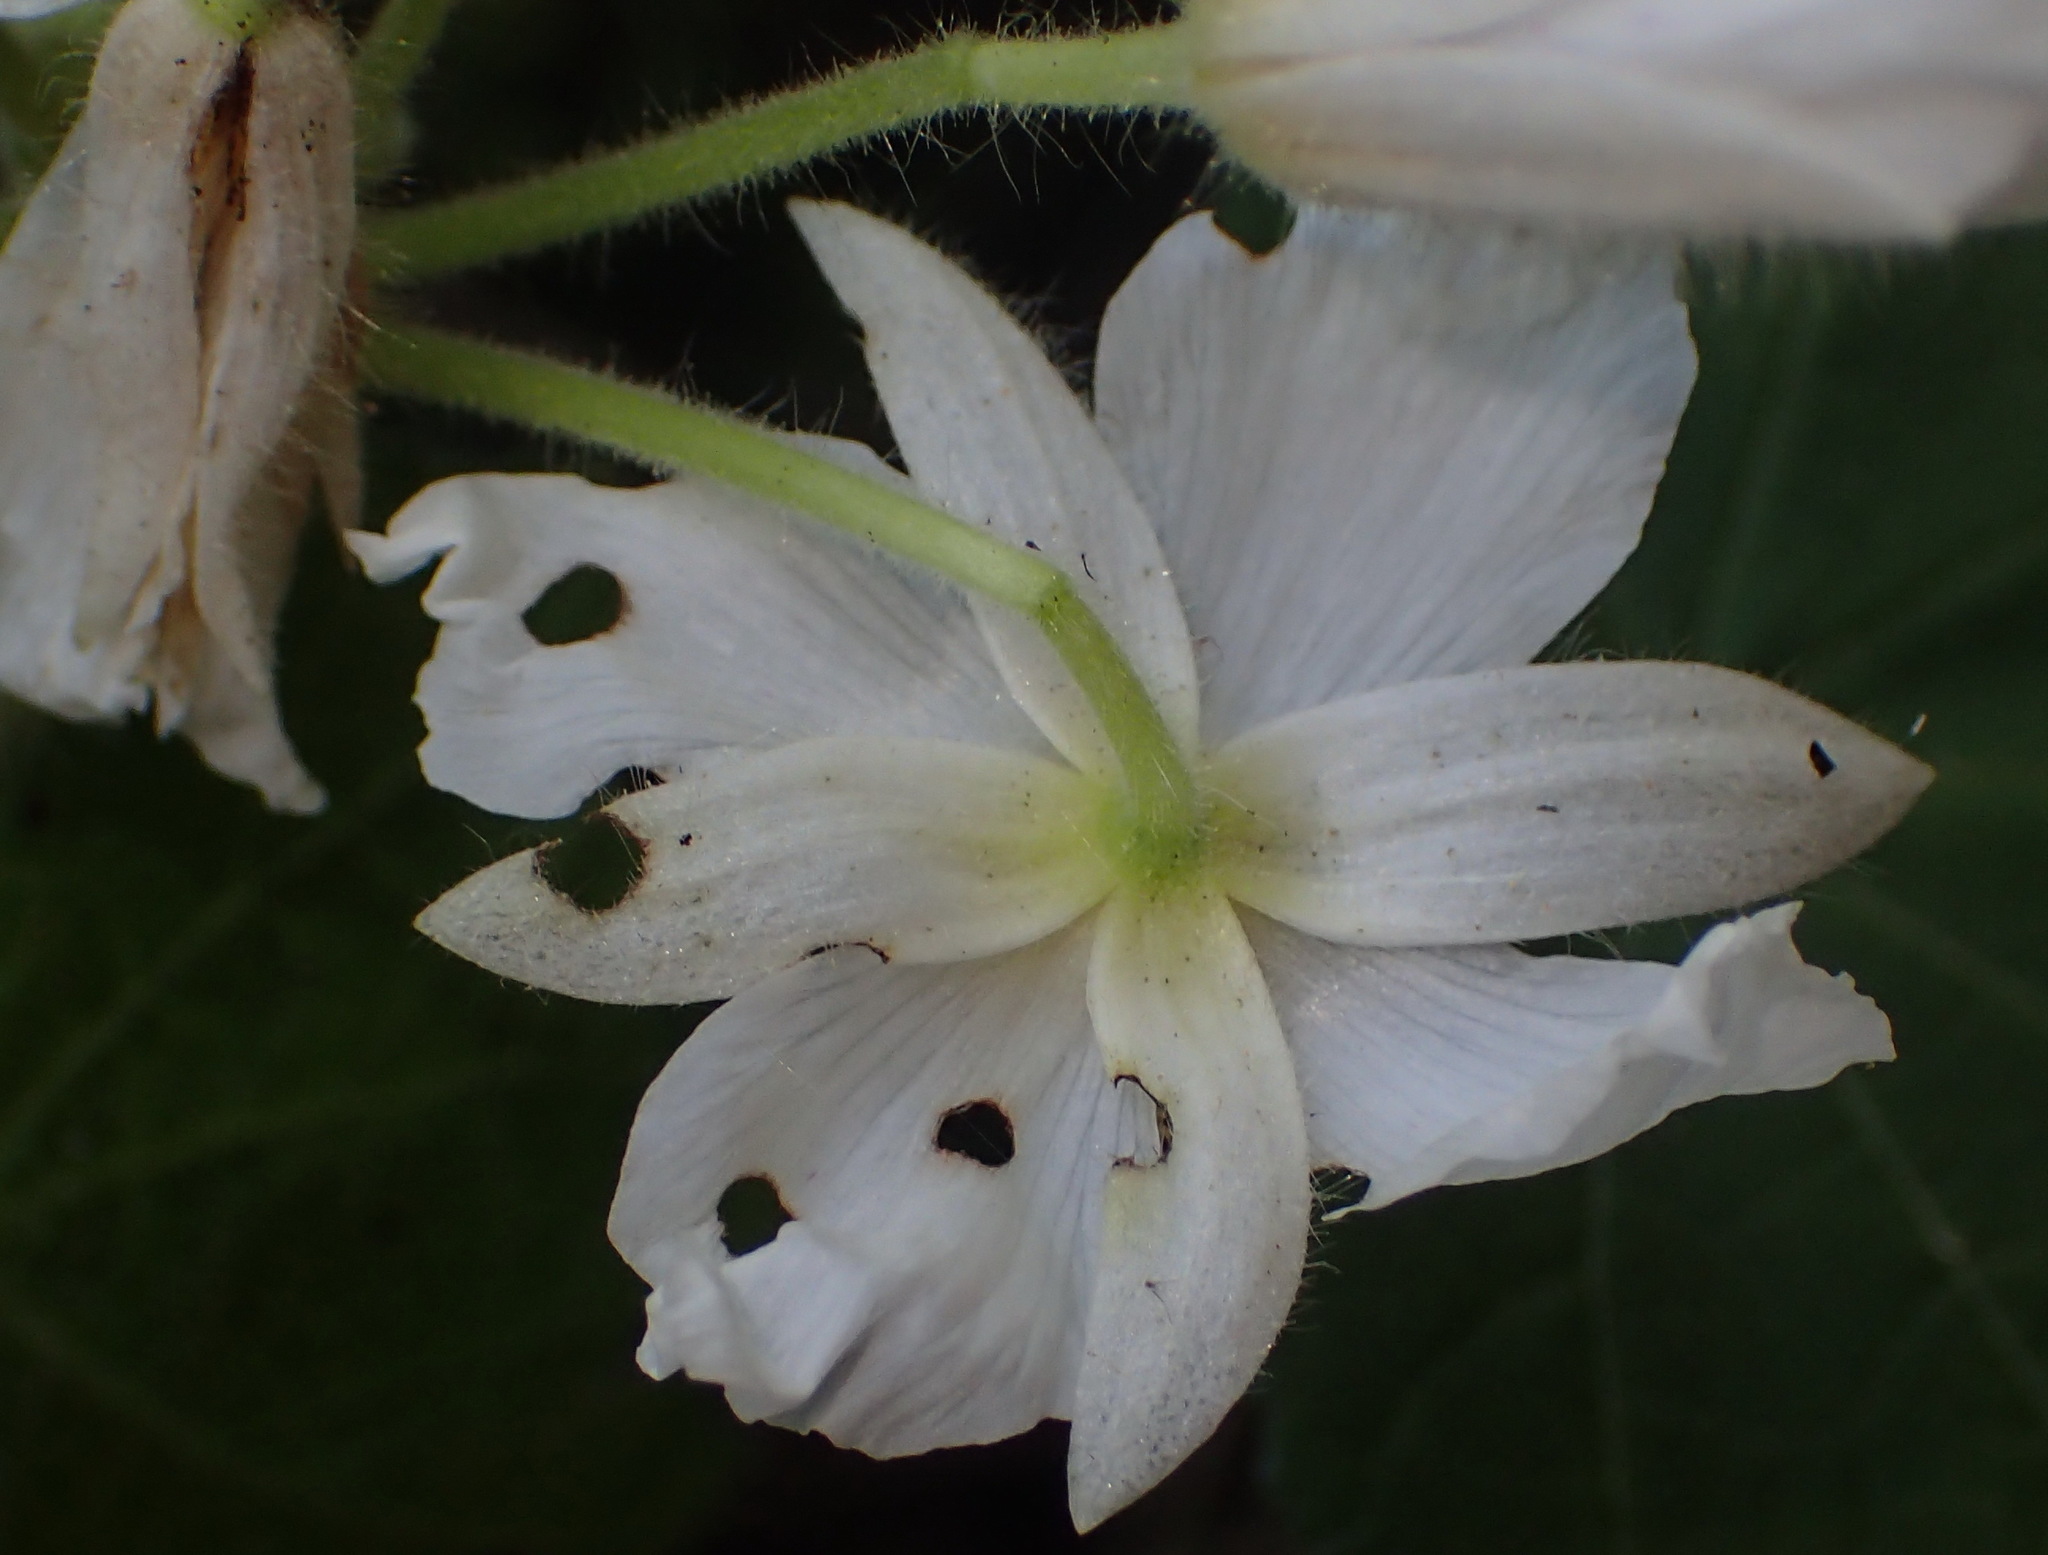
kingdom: Plantae
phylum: Tracheophyta
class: Magnoliopsida
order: Malvales
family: Malvaceae
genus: Sparrmannia
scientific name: Sparrmannia africana
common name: African-hemp
